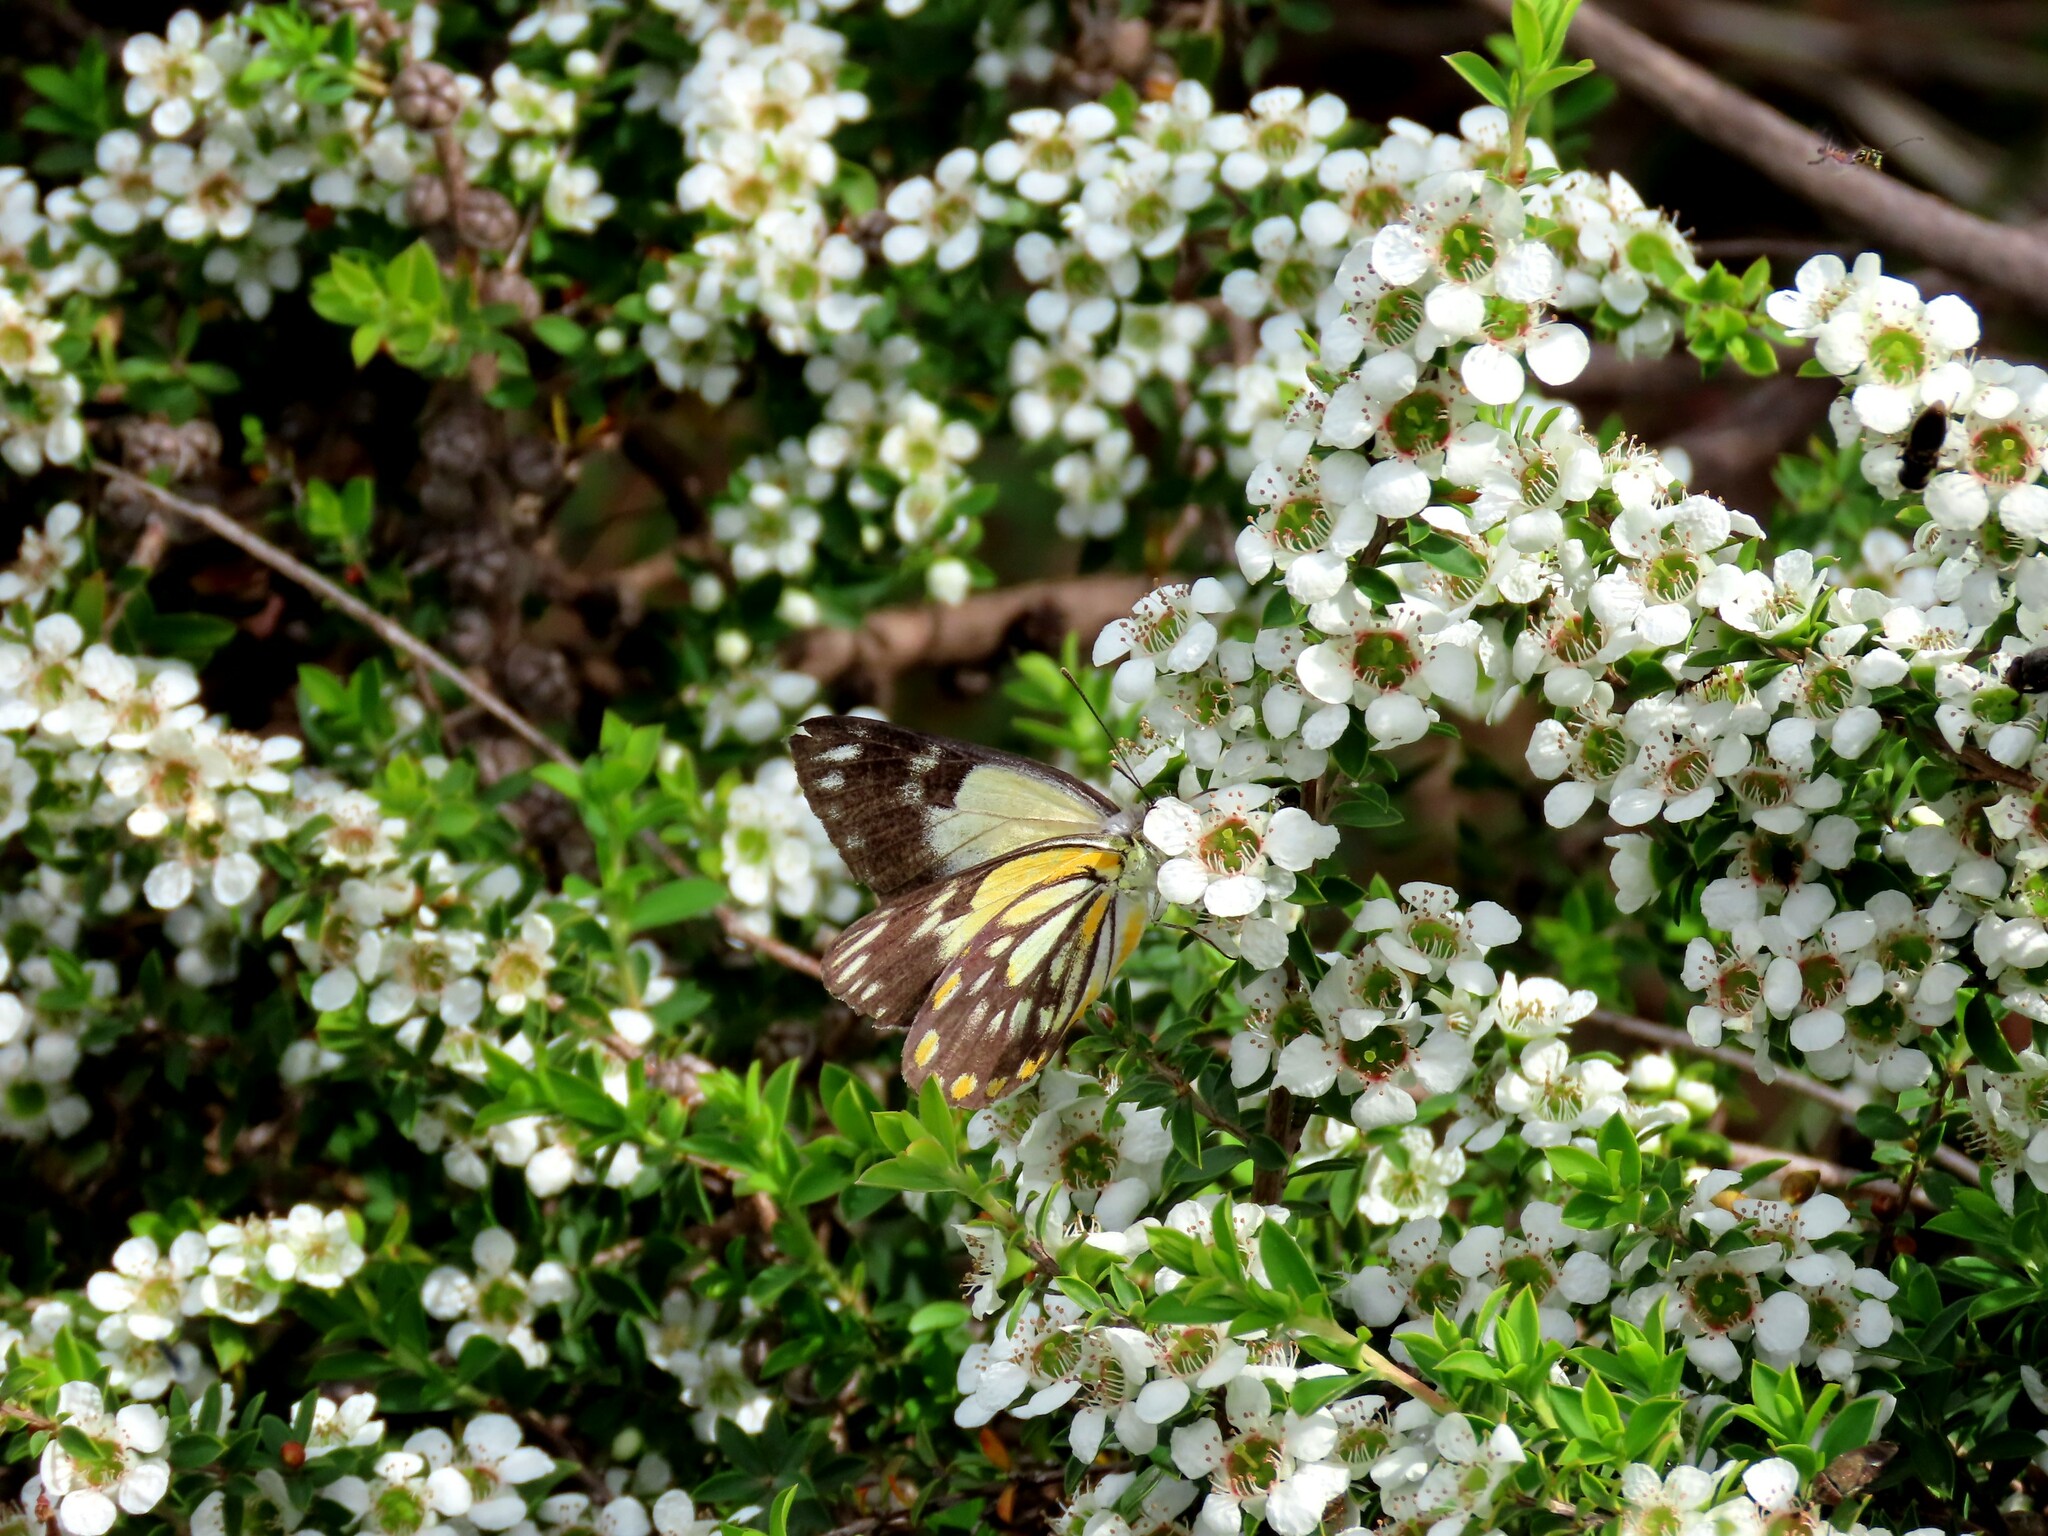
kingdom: Animalia
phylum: Arthropoda
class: Insecta
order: Lepidoptera
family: Pieridae
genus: Belenois
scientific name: Belenois java
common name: Caper white
